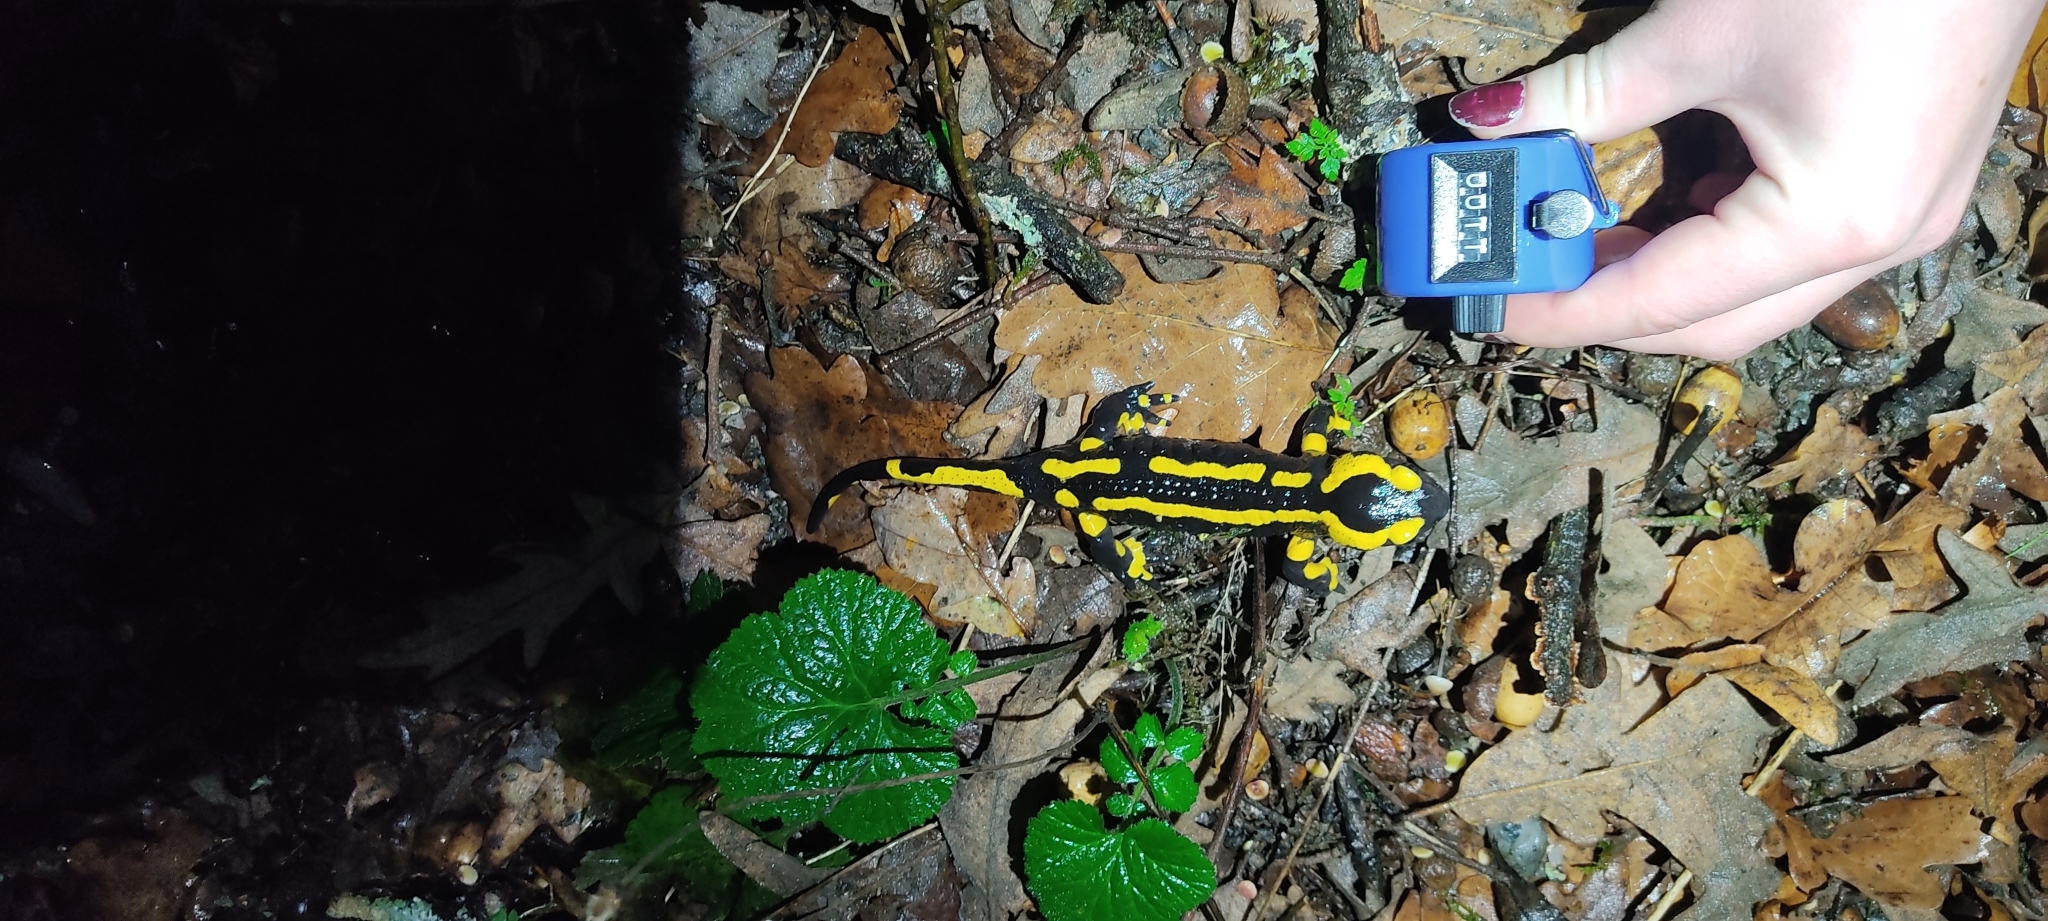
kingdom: Animalia
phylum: Chordata
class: Amphibia
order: Caudata
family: Salamandridae
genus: Salamandra
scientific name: Salamandra salamandra
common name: Fire salamander
